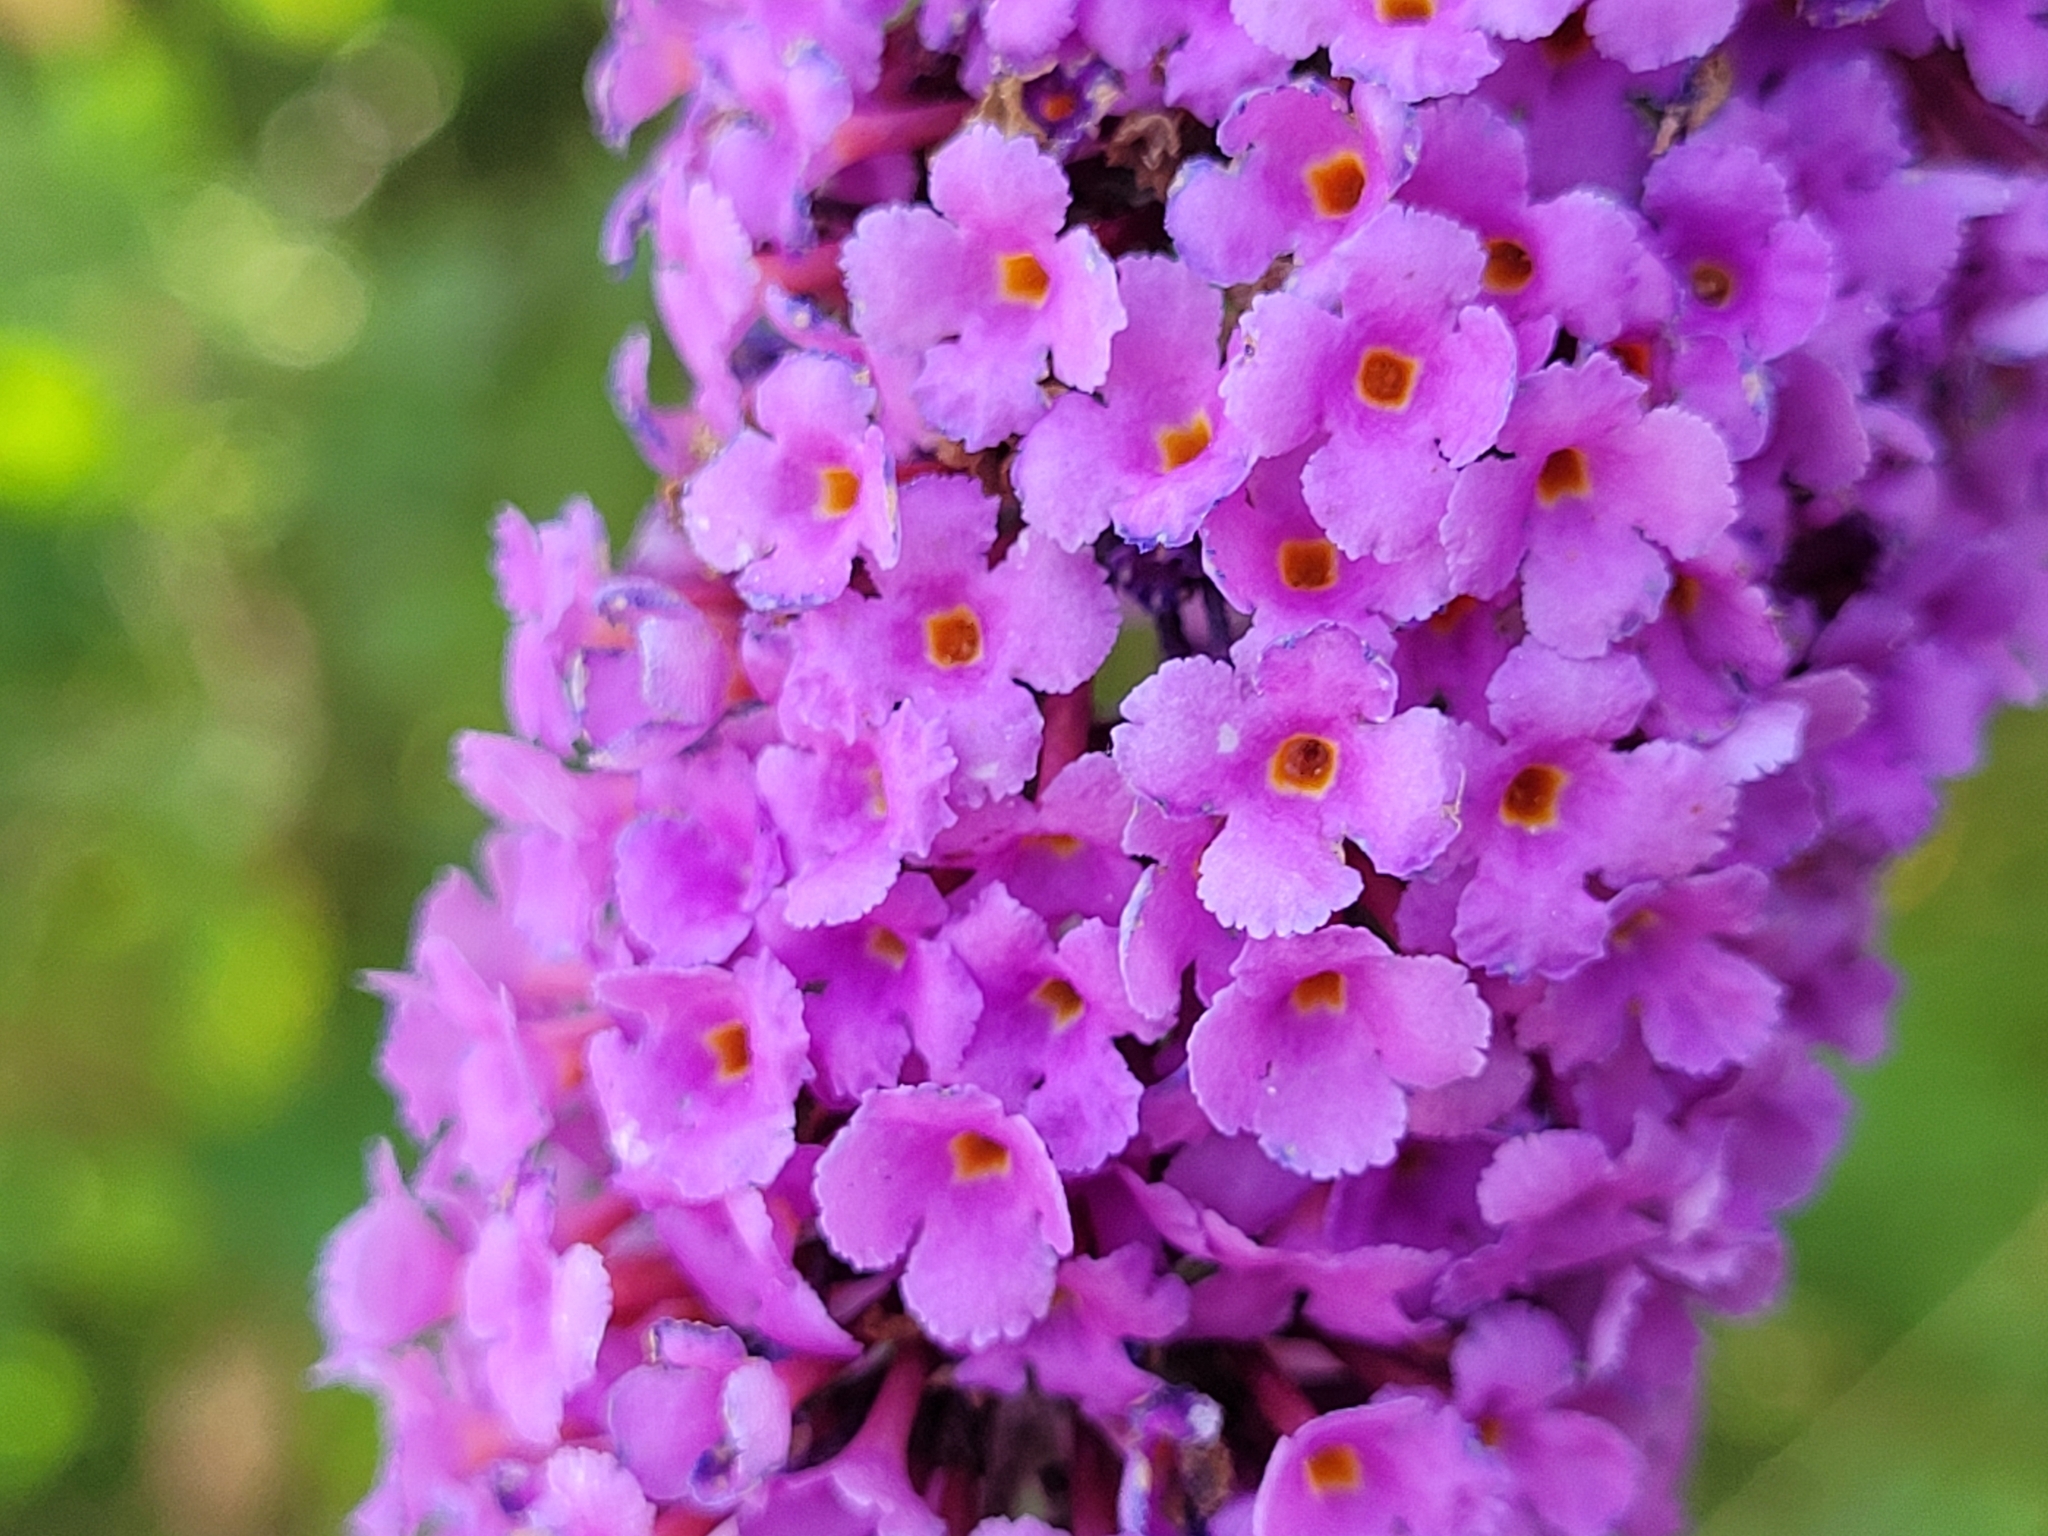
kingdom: Plantae
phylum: Tracheophyta
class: Magnoliopsida
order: Lamiales
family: Scrophulariaceae
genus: Buddleja
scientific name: Buddleja davidii
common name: Butterfly-bush
